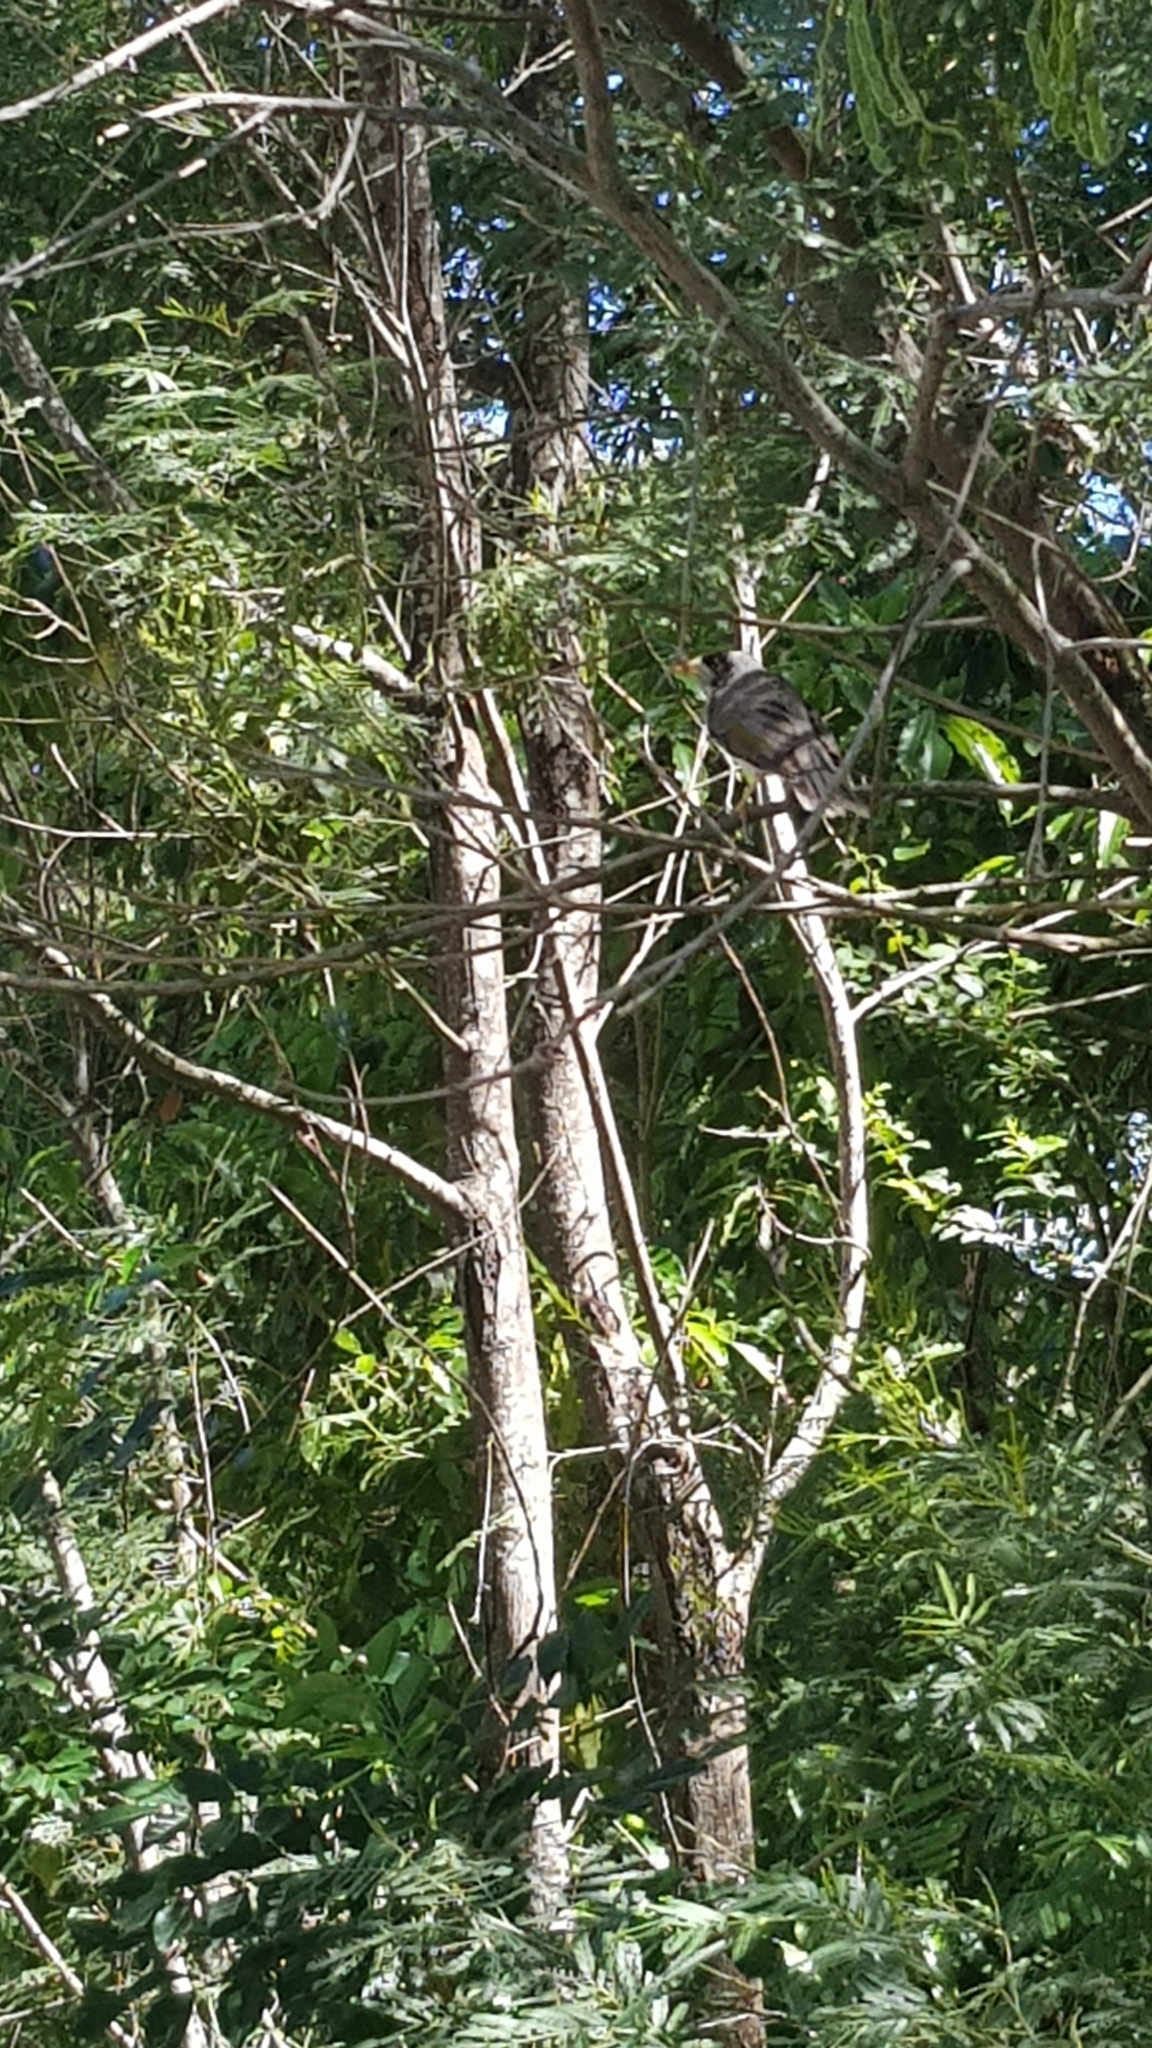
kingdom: Animalia
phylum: Chordata
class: Aves
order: Passeriformes
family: Meliphagidae
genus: Manorina
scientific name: Manorina melanocephala
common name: Noisy miner
